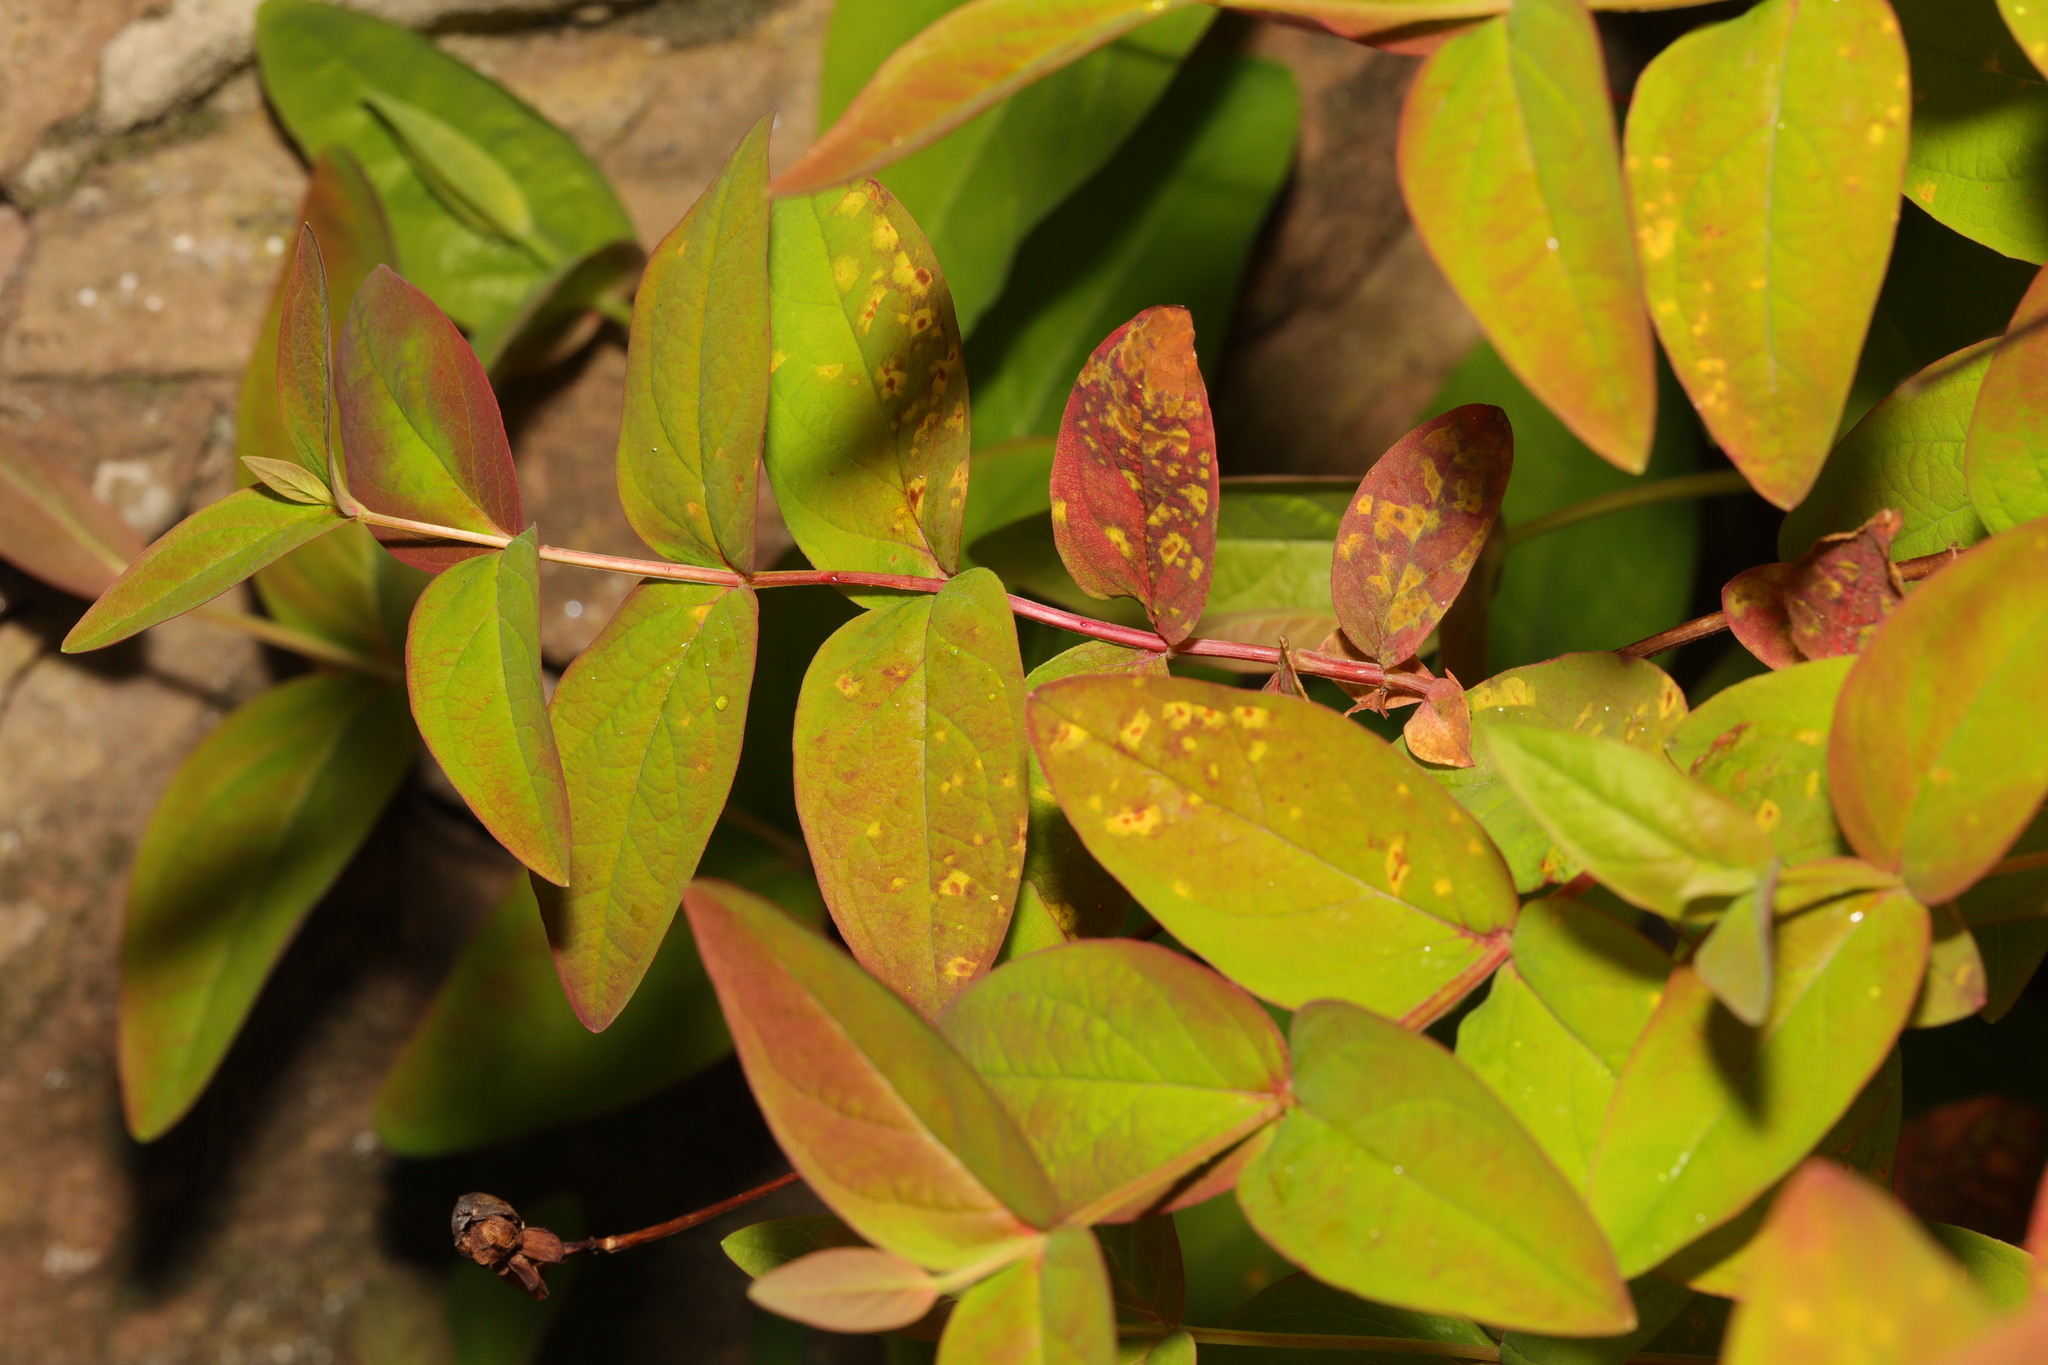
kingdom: Plantae
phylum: Tracheophyta
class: Magnoliopsida
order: Malpighiales
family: Hypericaceae
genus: Hypericum
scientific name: Hypericum androsaemum
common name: Sweet-amber
